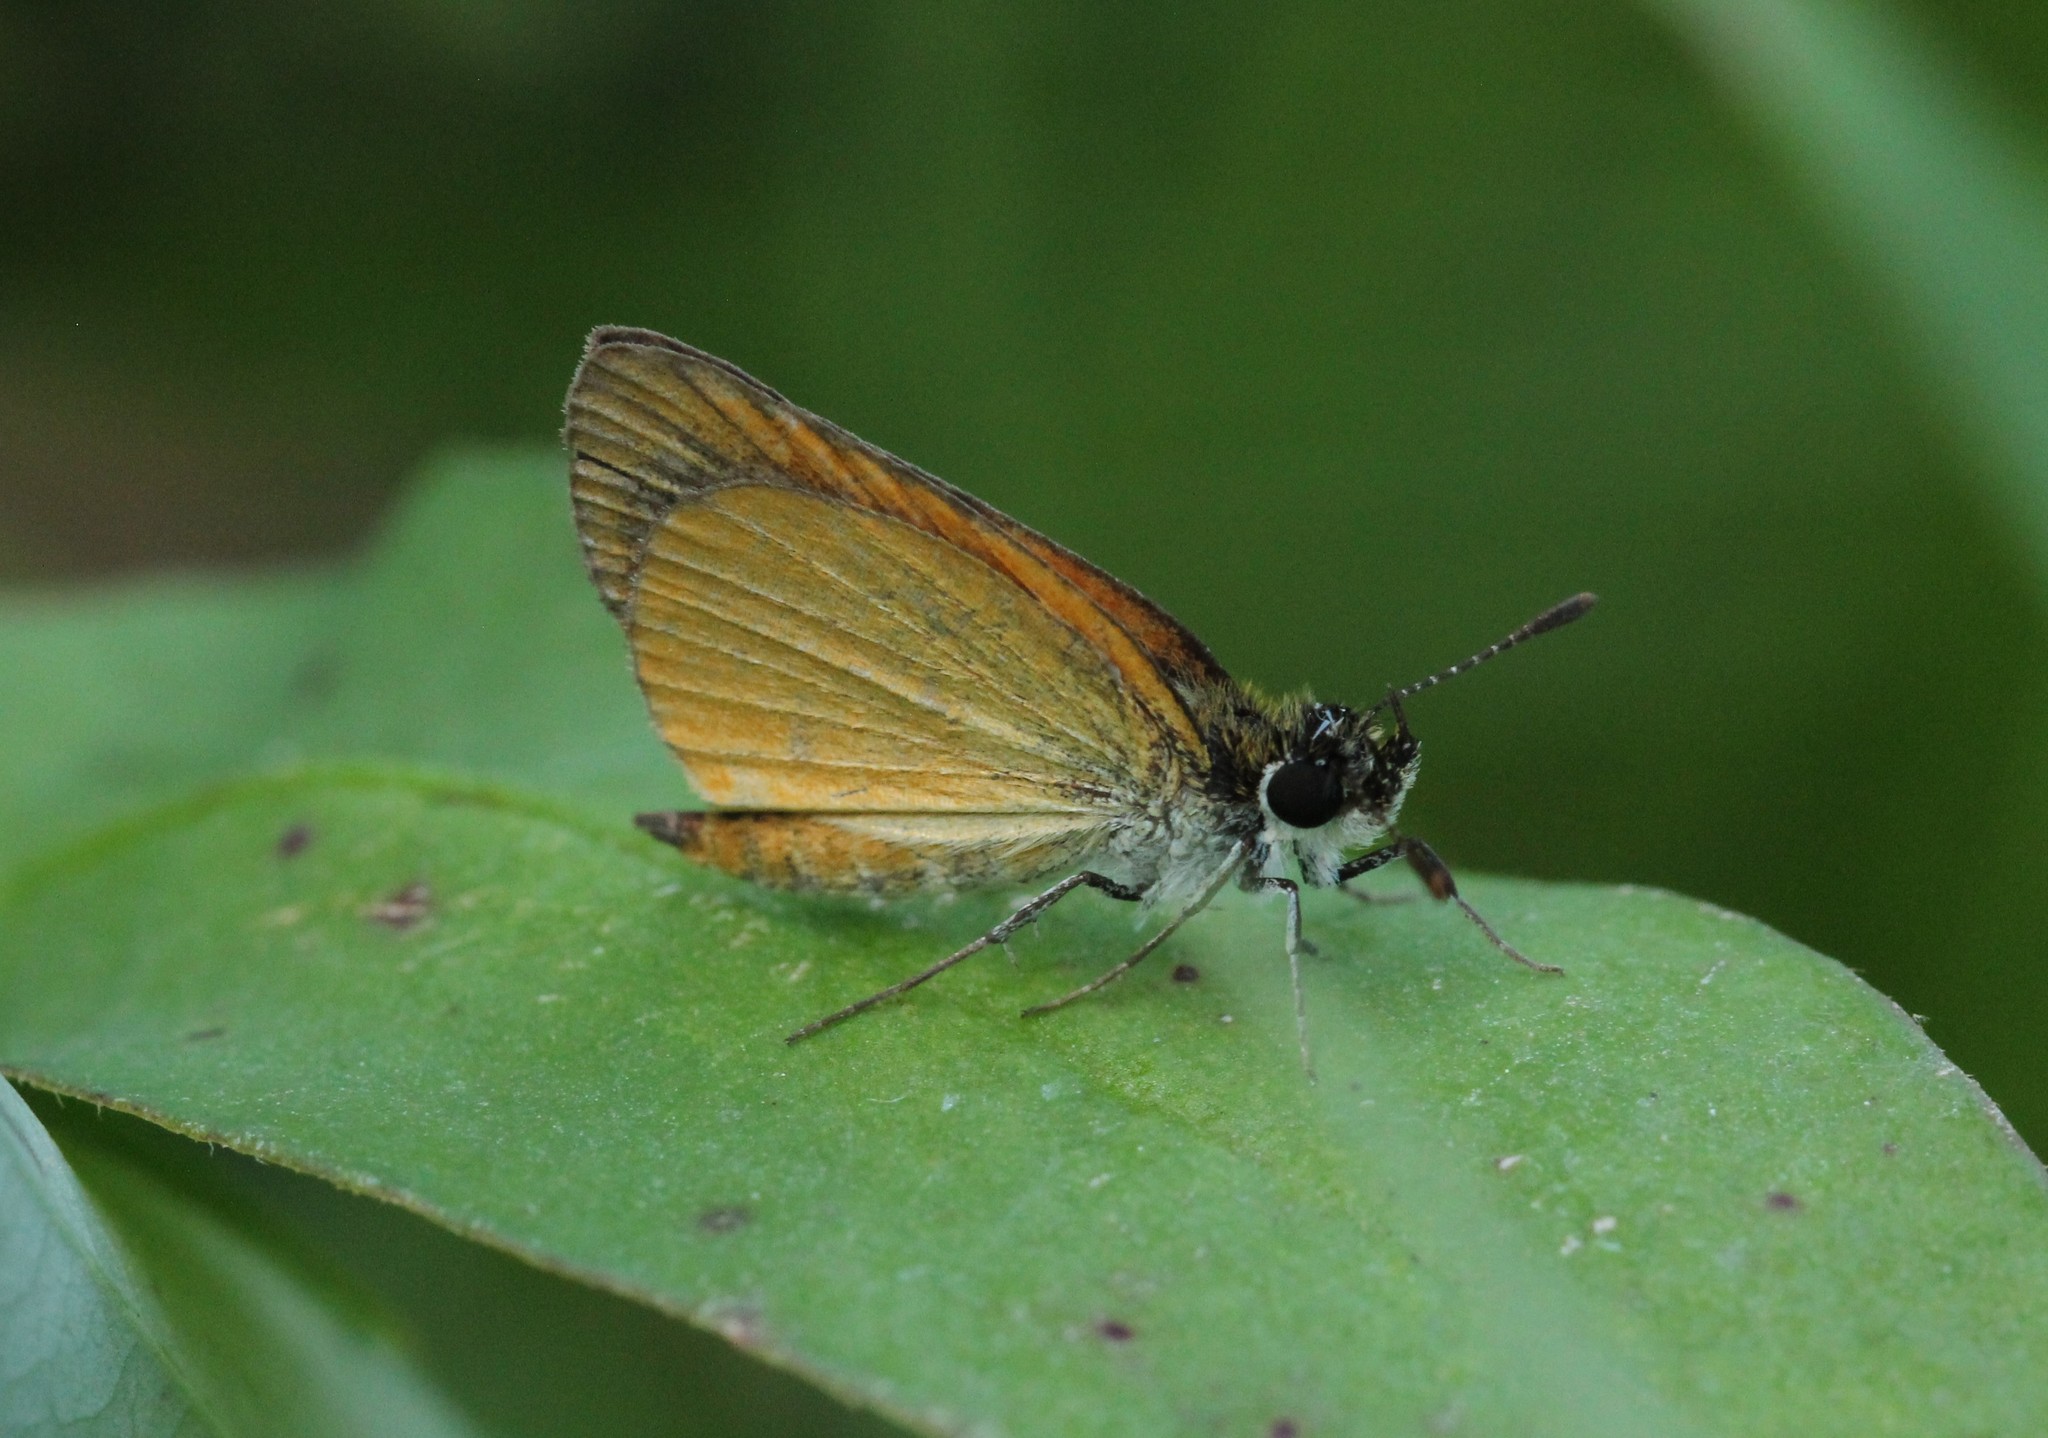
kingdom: Animalia
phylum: Arthropoda
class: Insecta
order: Lepidoptera
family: Hesperiidae
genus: Ancyloxypha
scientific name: Ancyloxypha numitor
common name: Least skipper
